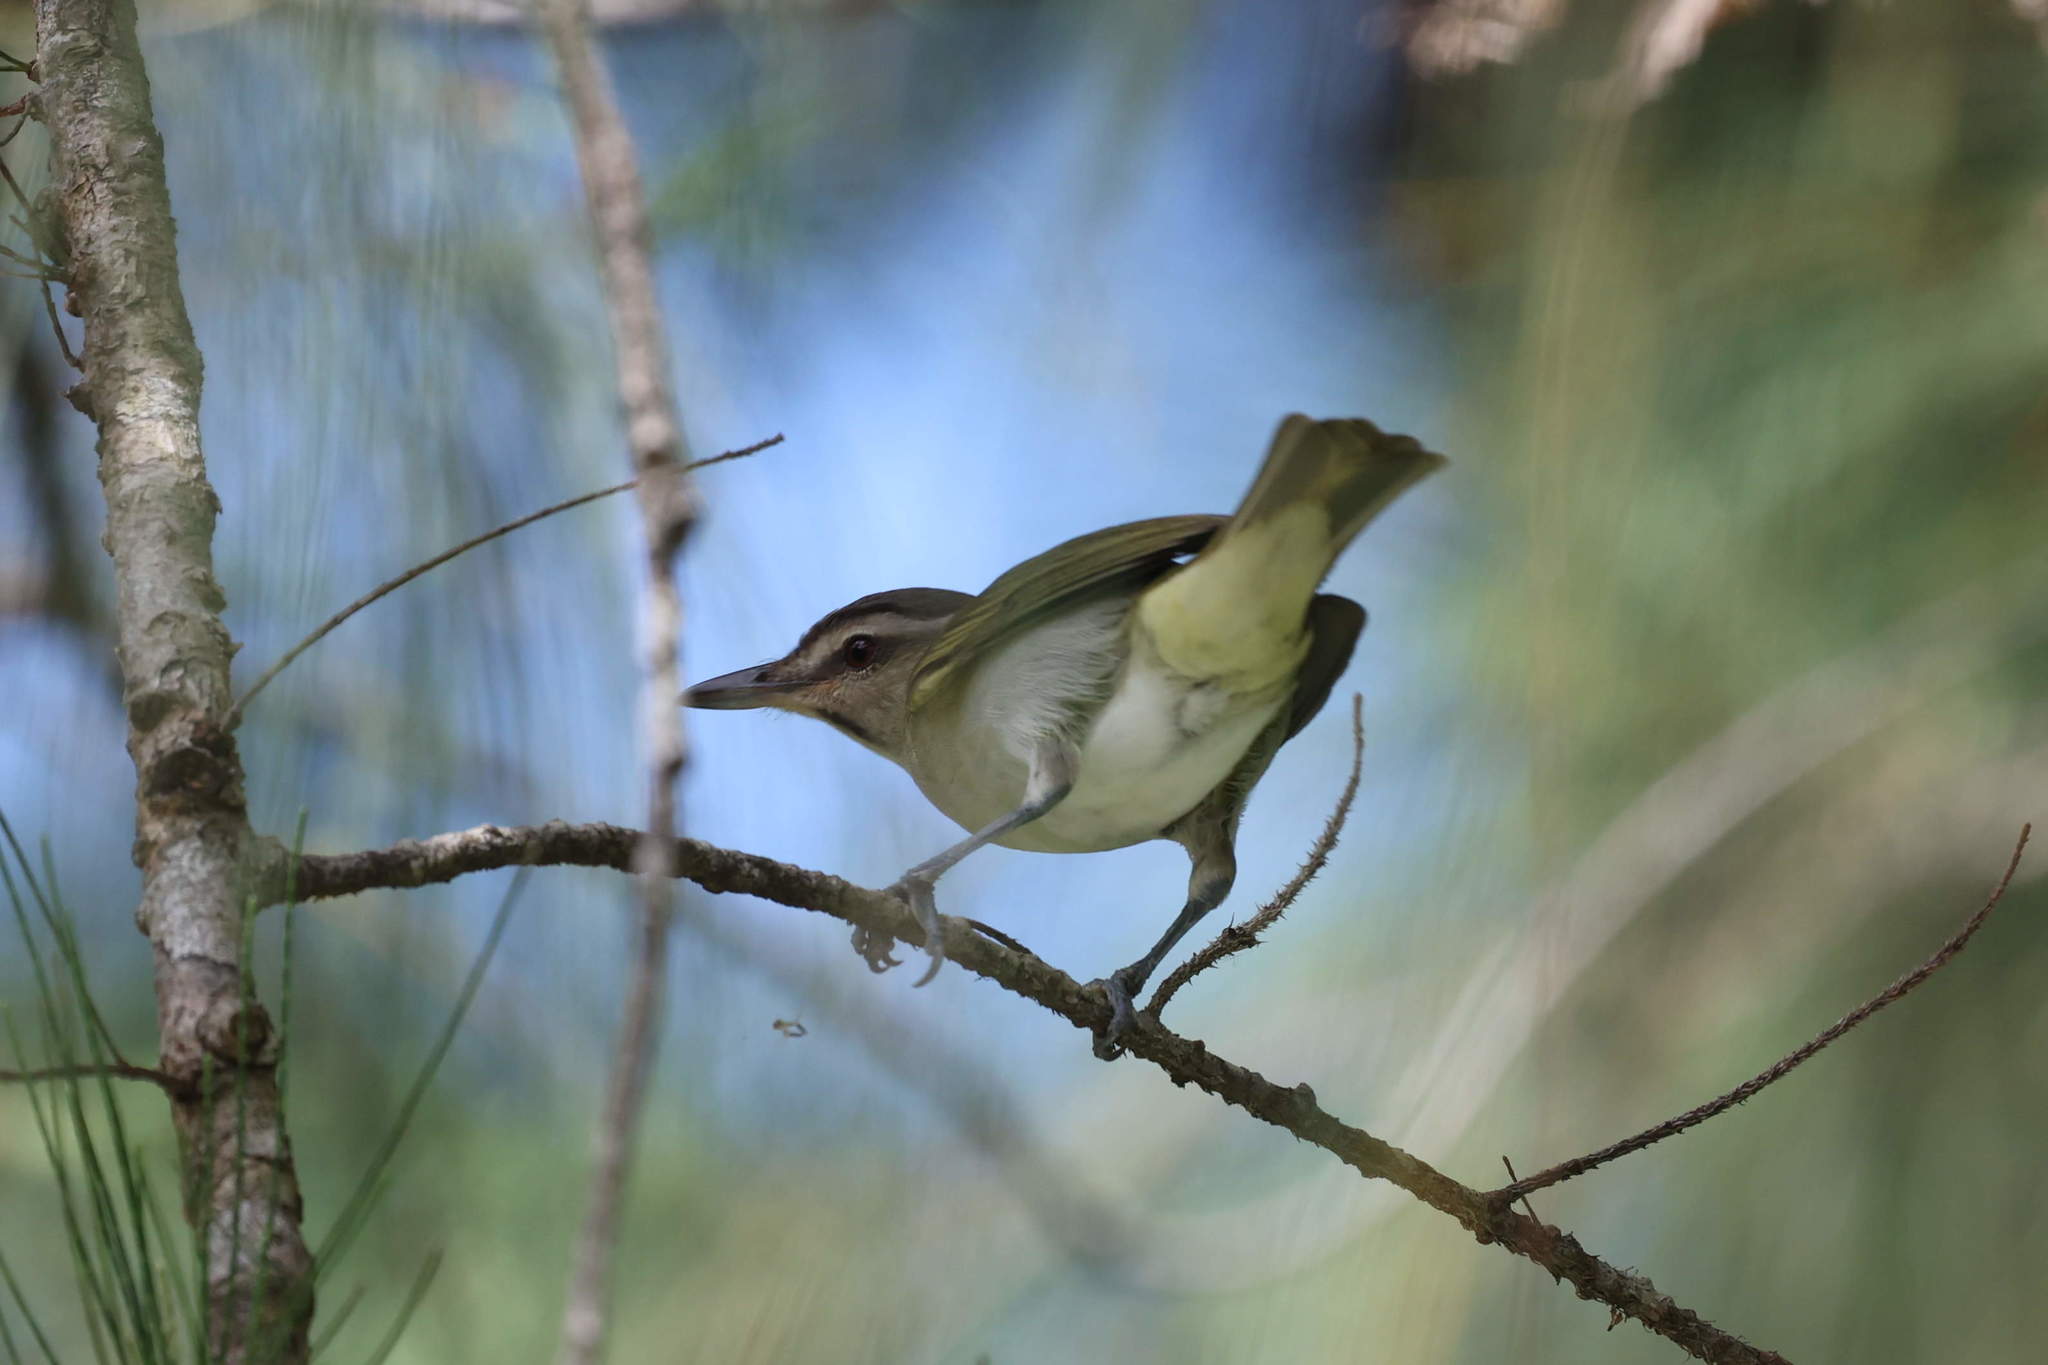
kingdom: Animalia
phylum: Chordata
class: Aves
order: Passeriformes
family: Vireonidae
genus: Vireo
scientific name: Vireo altiloquus
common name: Black-whiskered vireo
